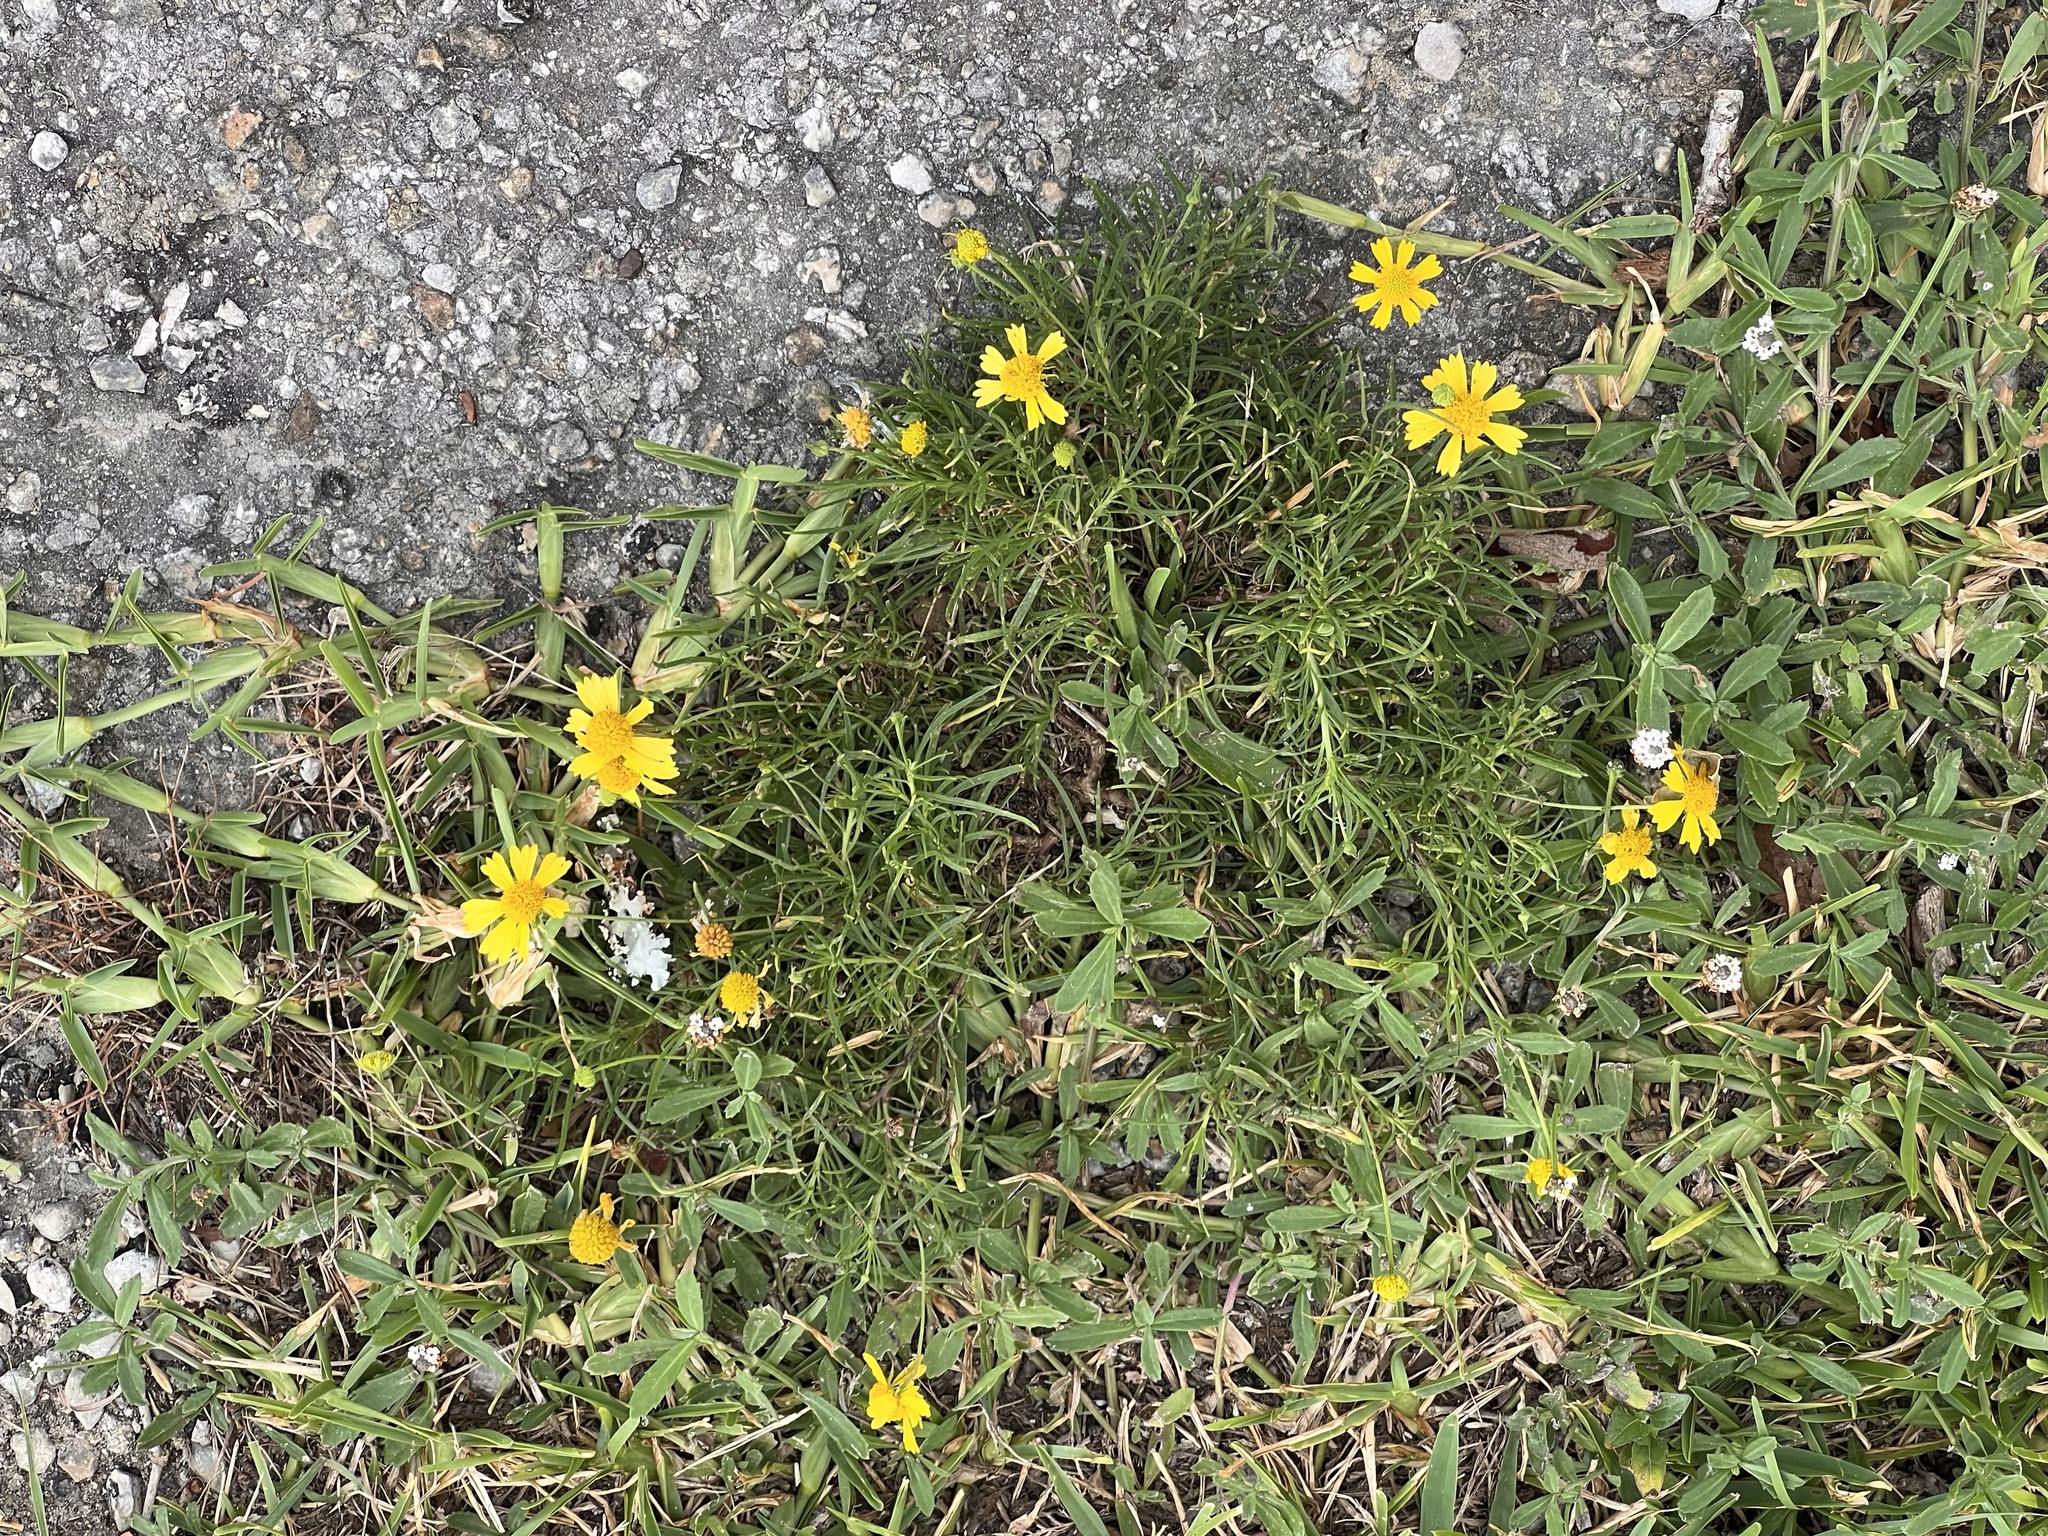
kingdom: Plantae
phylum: Tracheophyta
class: Magnoliopsida
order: Asterales
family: Asteraceae
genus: Helenium
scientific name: Helenium amarum
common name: Bitter sneezeweed
